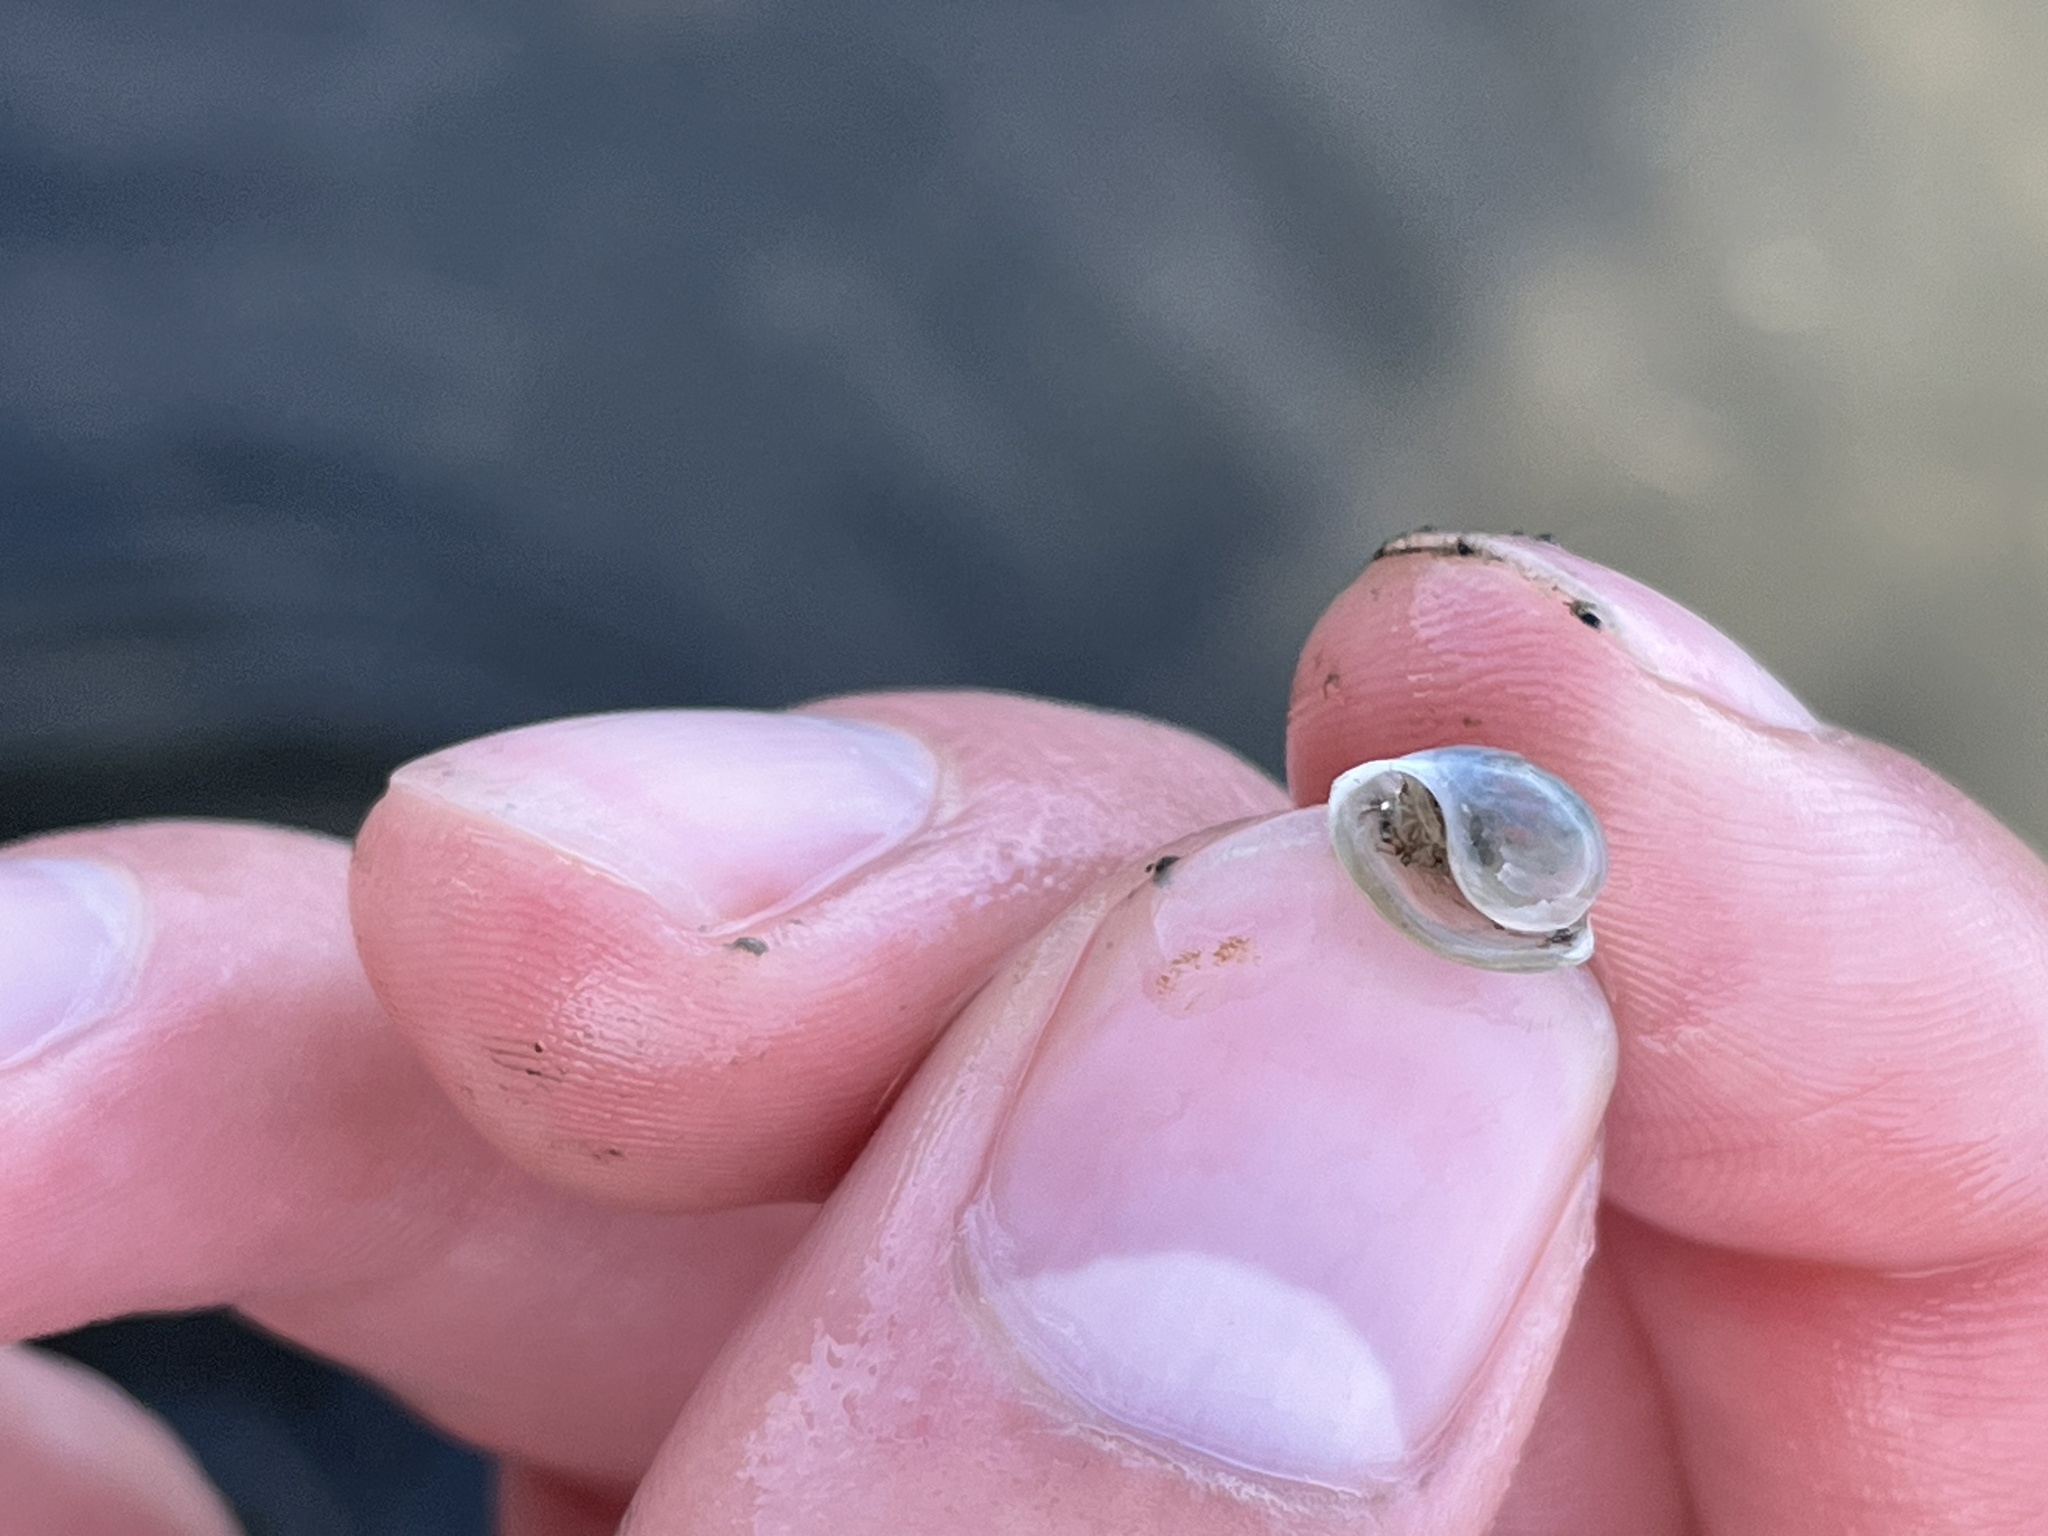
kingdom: Animalia
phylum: Mollusca
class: Gastropoda
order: Cephalaspidea
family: Haminoeidae
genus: Haloa
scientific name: Haloa japonica
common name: Japanese bubble snail
